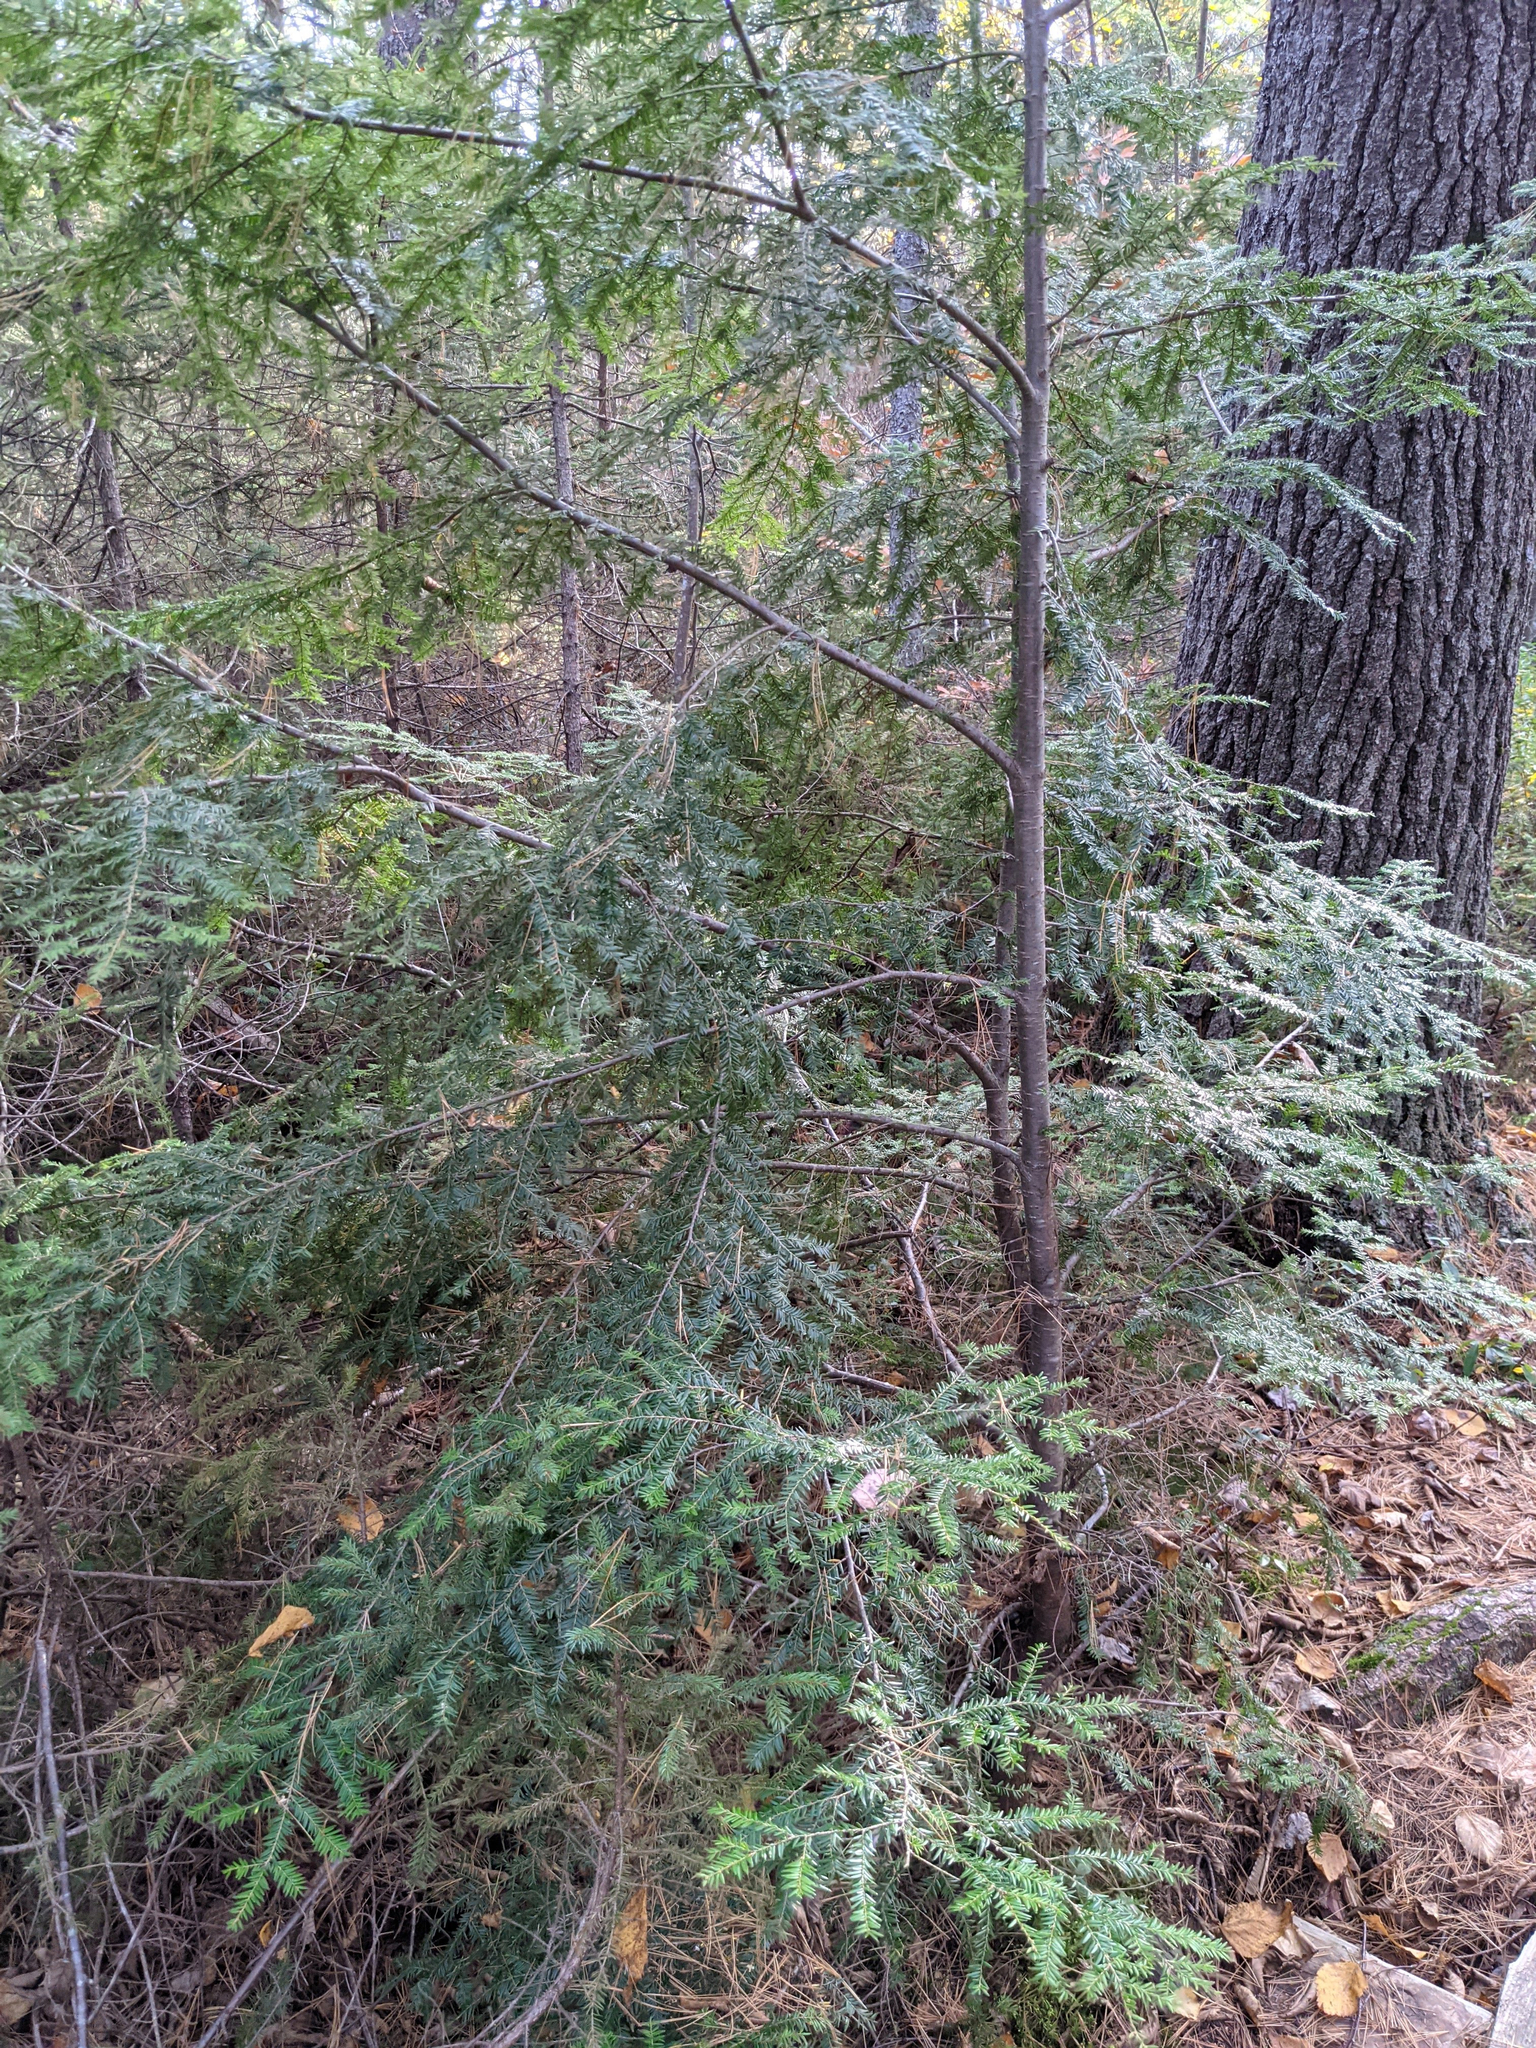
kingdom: Plantae
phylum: Tracheophyta
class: Pinopsida
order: Pinales
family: Pinaceae
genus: Tsuga
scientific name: Tsuga canadensis
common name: Eastern hemlock
